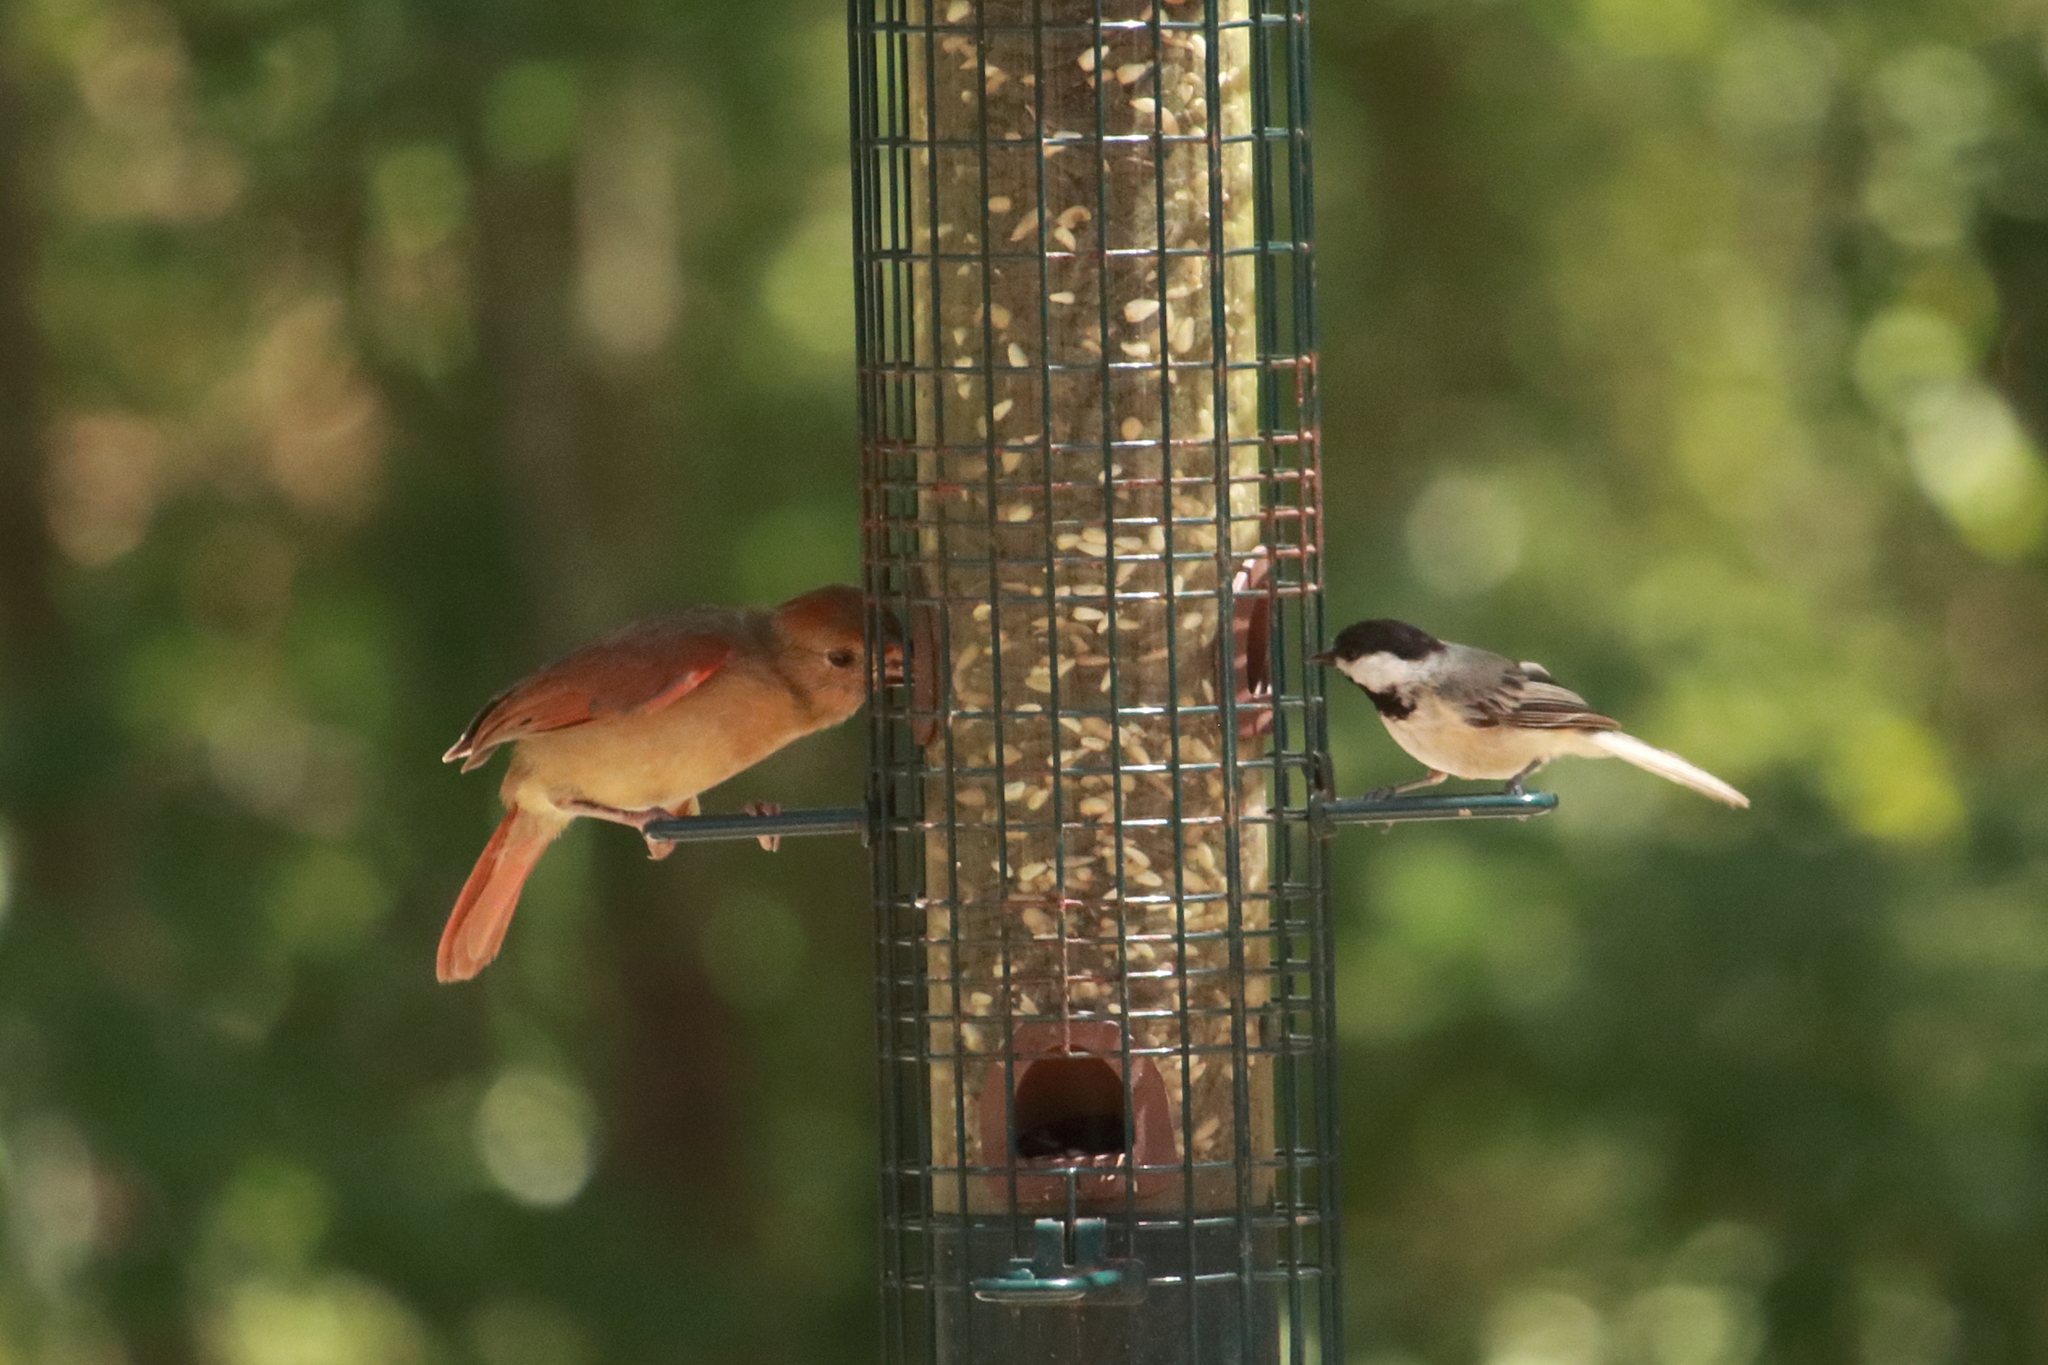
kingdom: Animalia
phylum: Chordata
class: Aves
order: Passeriformes
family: Paridae
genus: Poecile
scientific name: Poecile carolinensis
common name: Carolina chickadee
